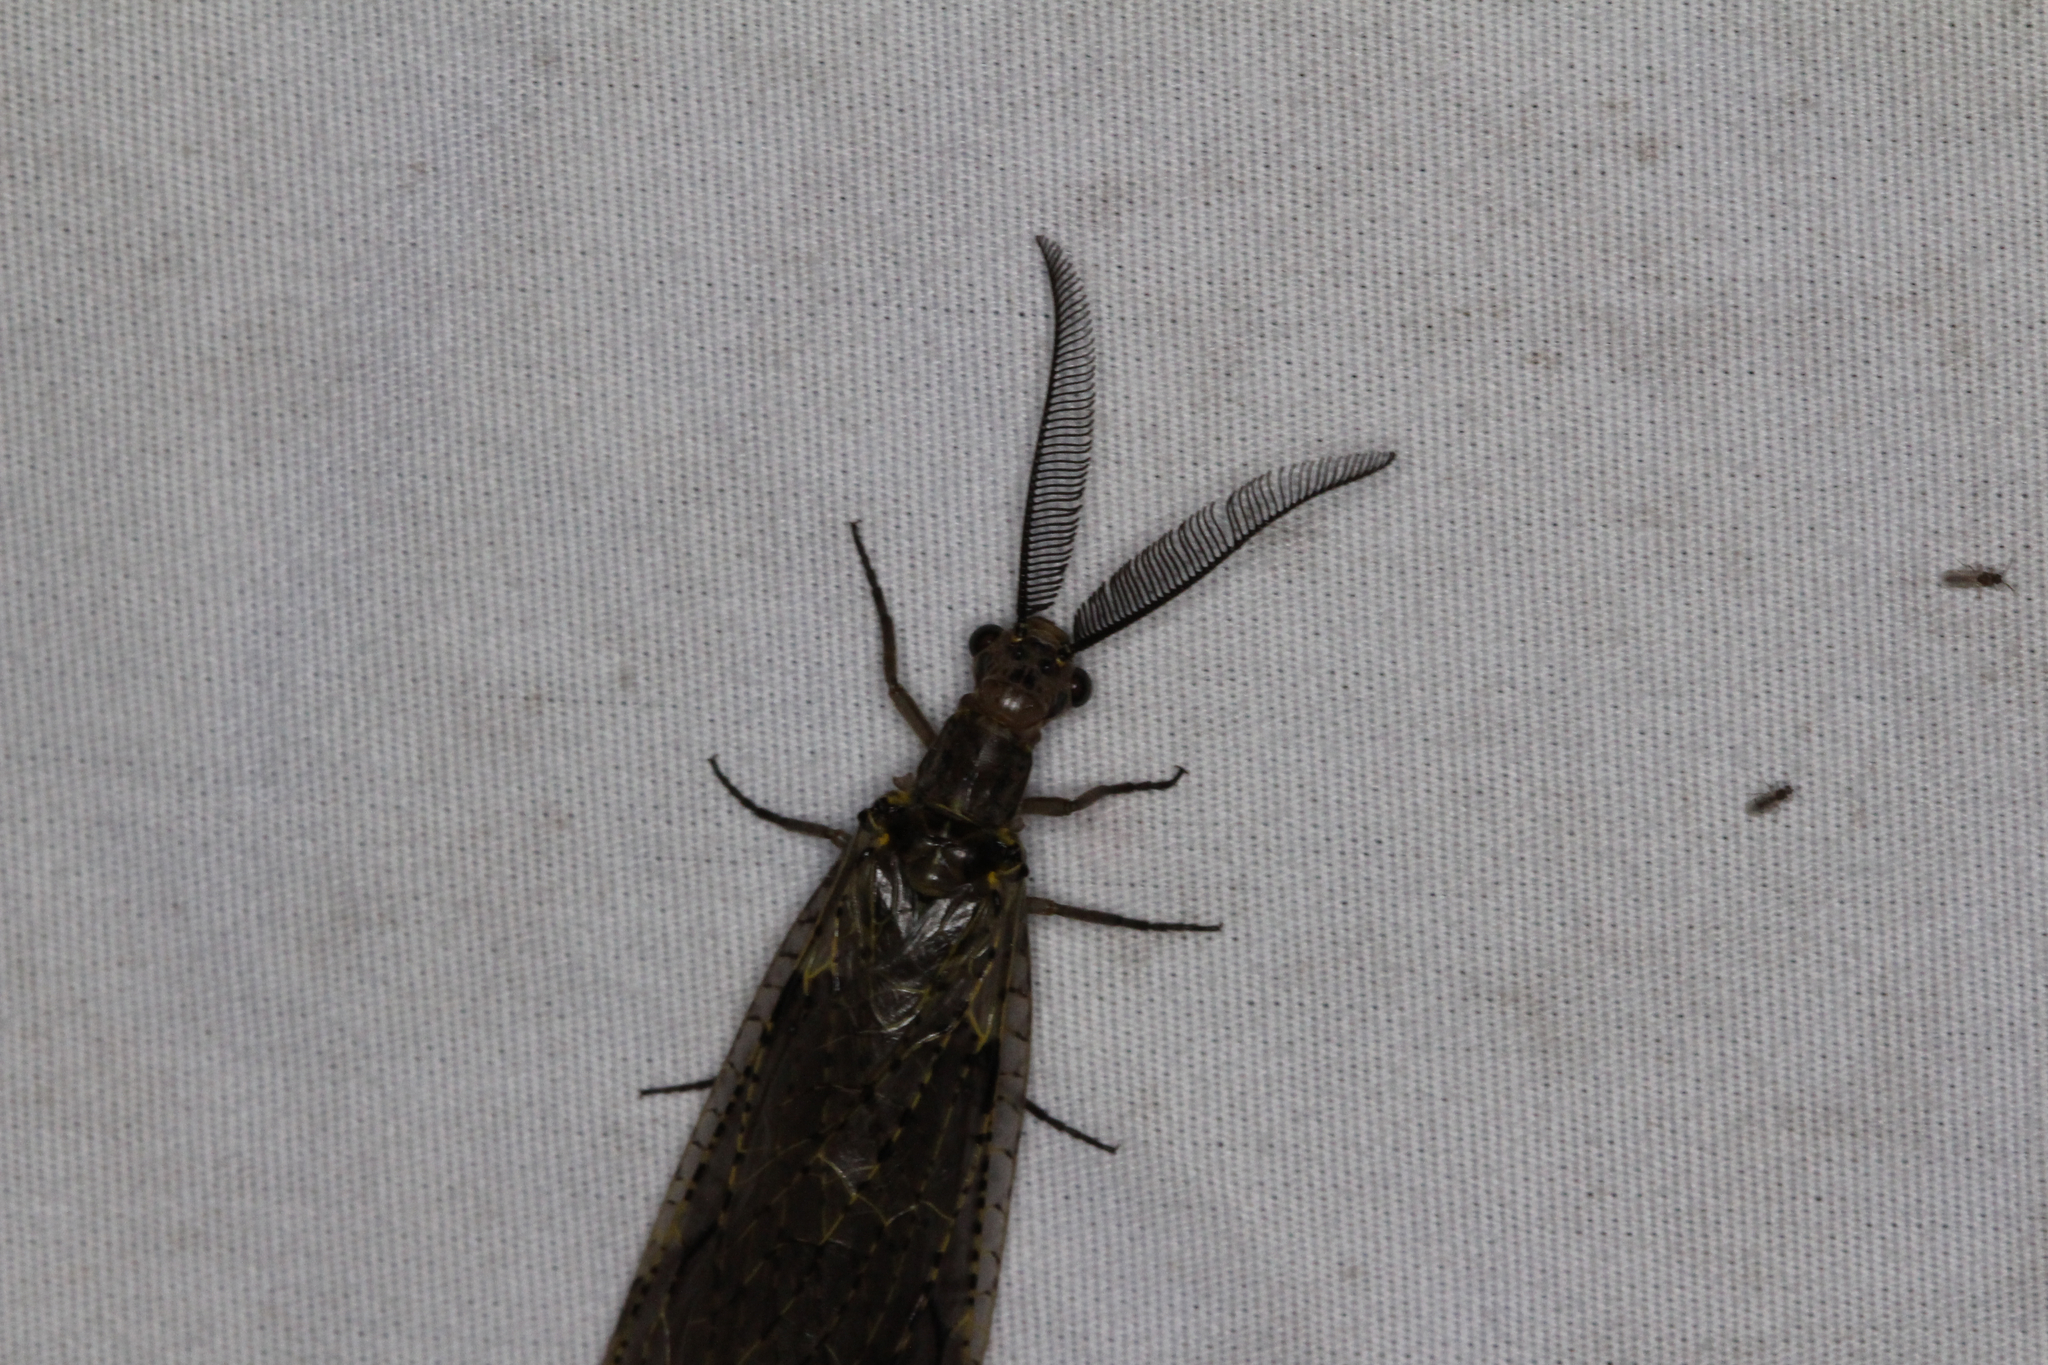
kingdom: Animalia
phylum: Arthropoda
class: Insecta
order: Megaloptera
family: Corydalidae
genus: Chauliodes
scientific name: Chauliodes rastricornis
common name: Spring fishfly
